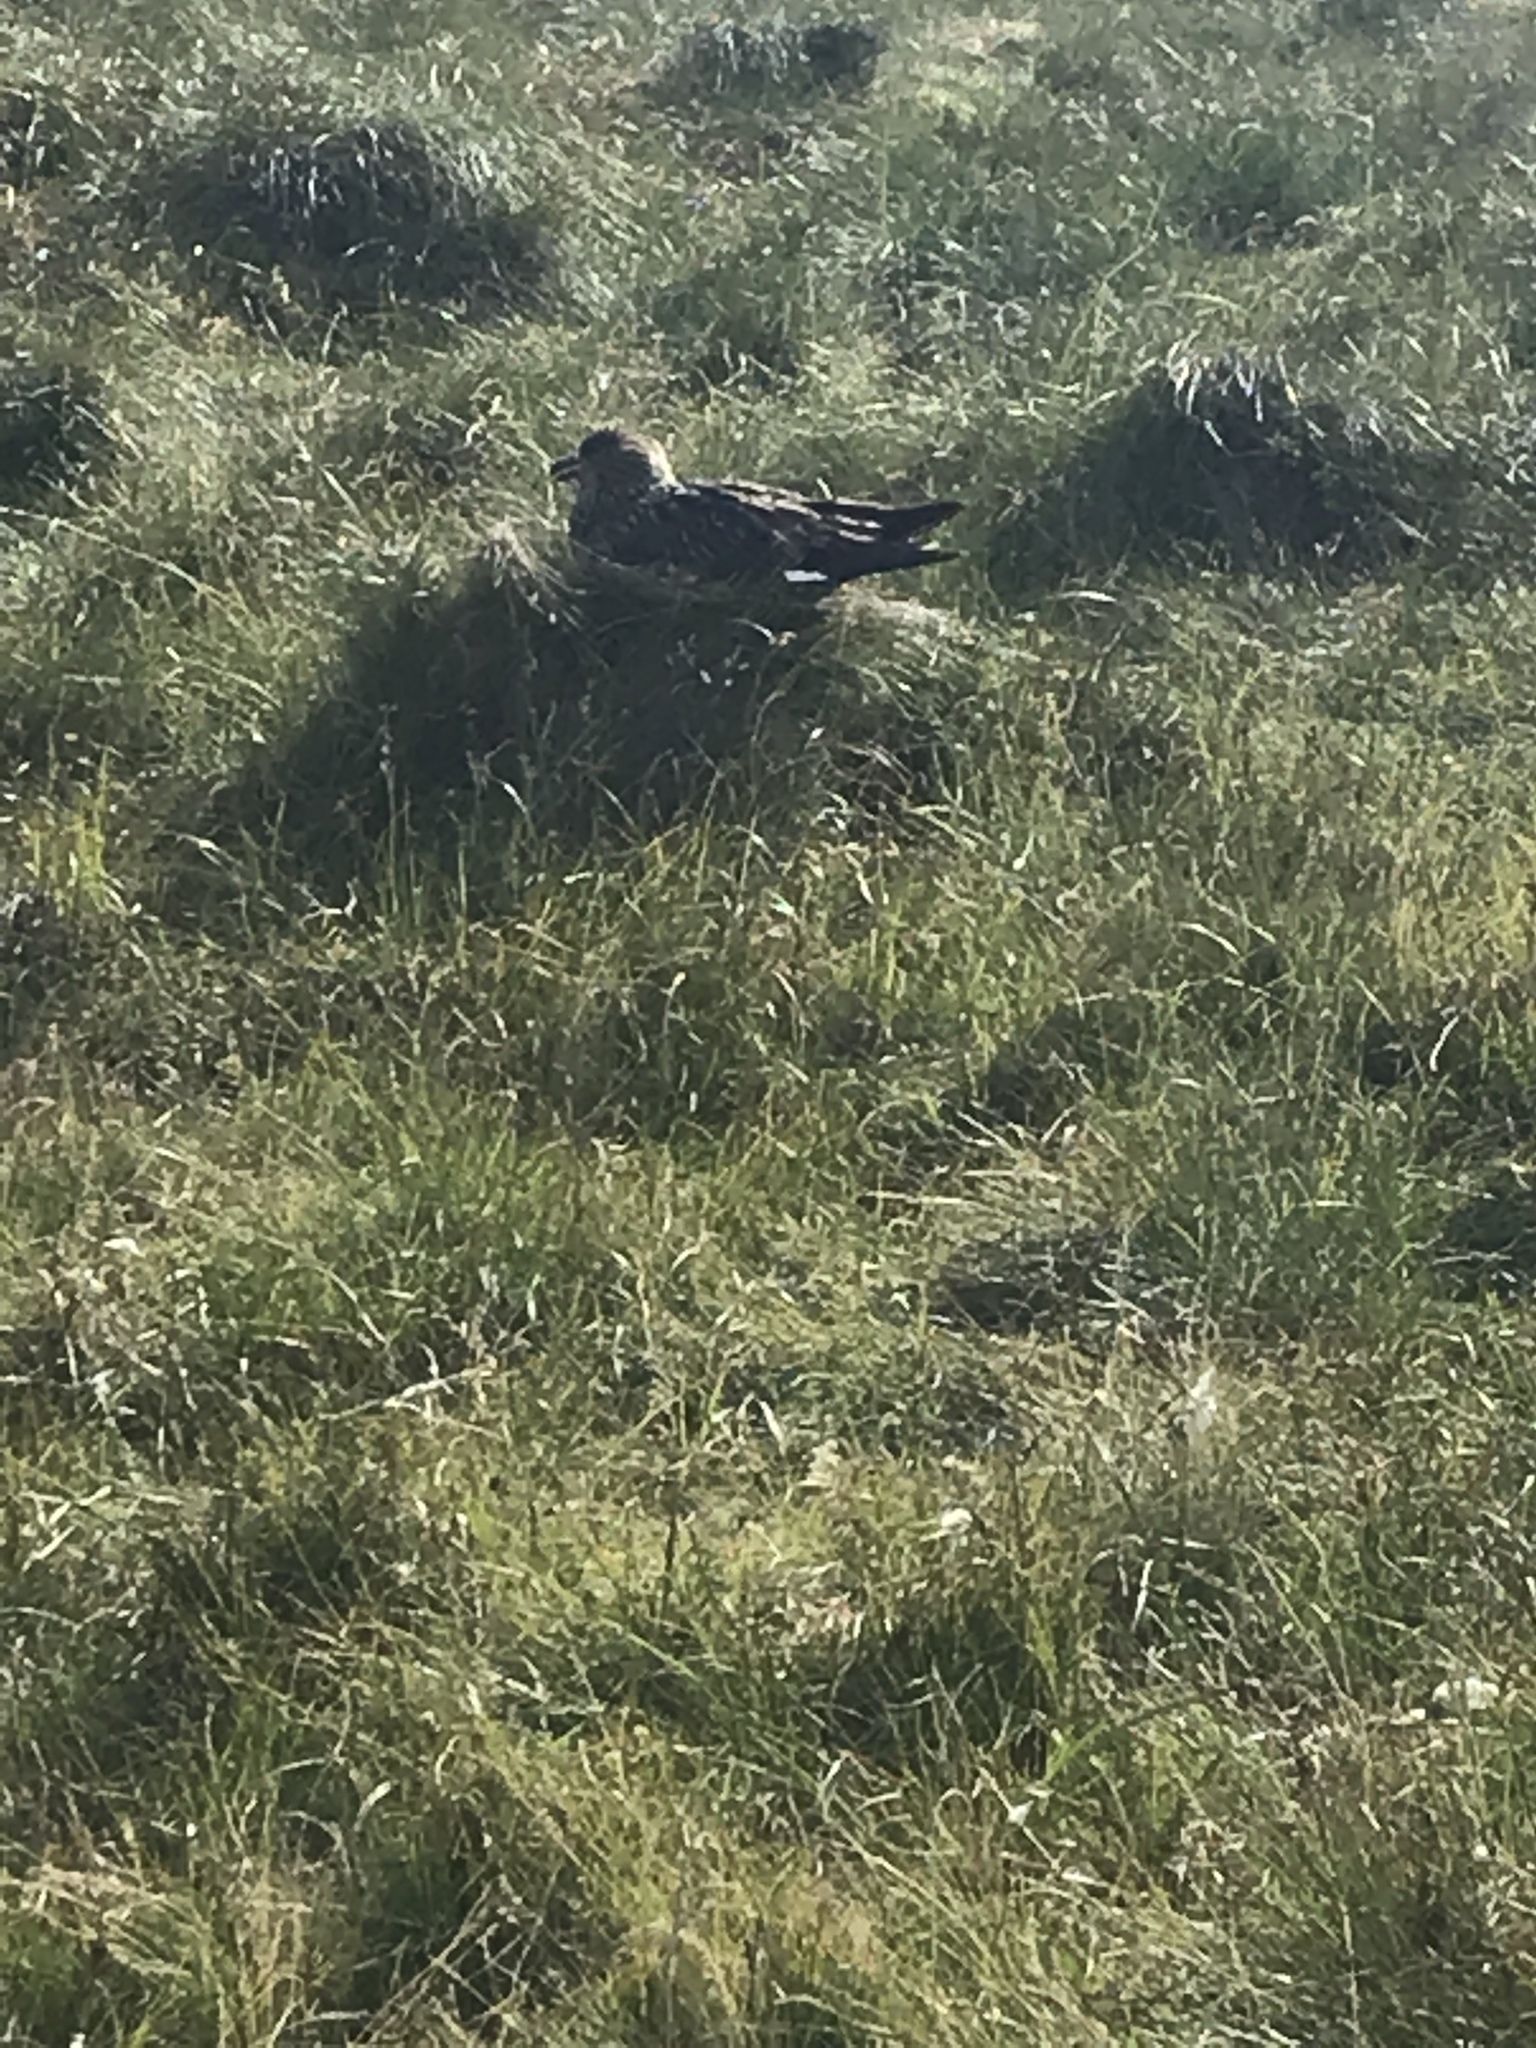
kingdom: Animalia
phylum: Chordata
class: Aves
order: Charadriiformes
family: Stercorariidae
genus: Stercorarius
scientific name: Stercorarius skua
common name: Great skua
